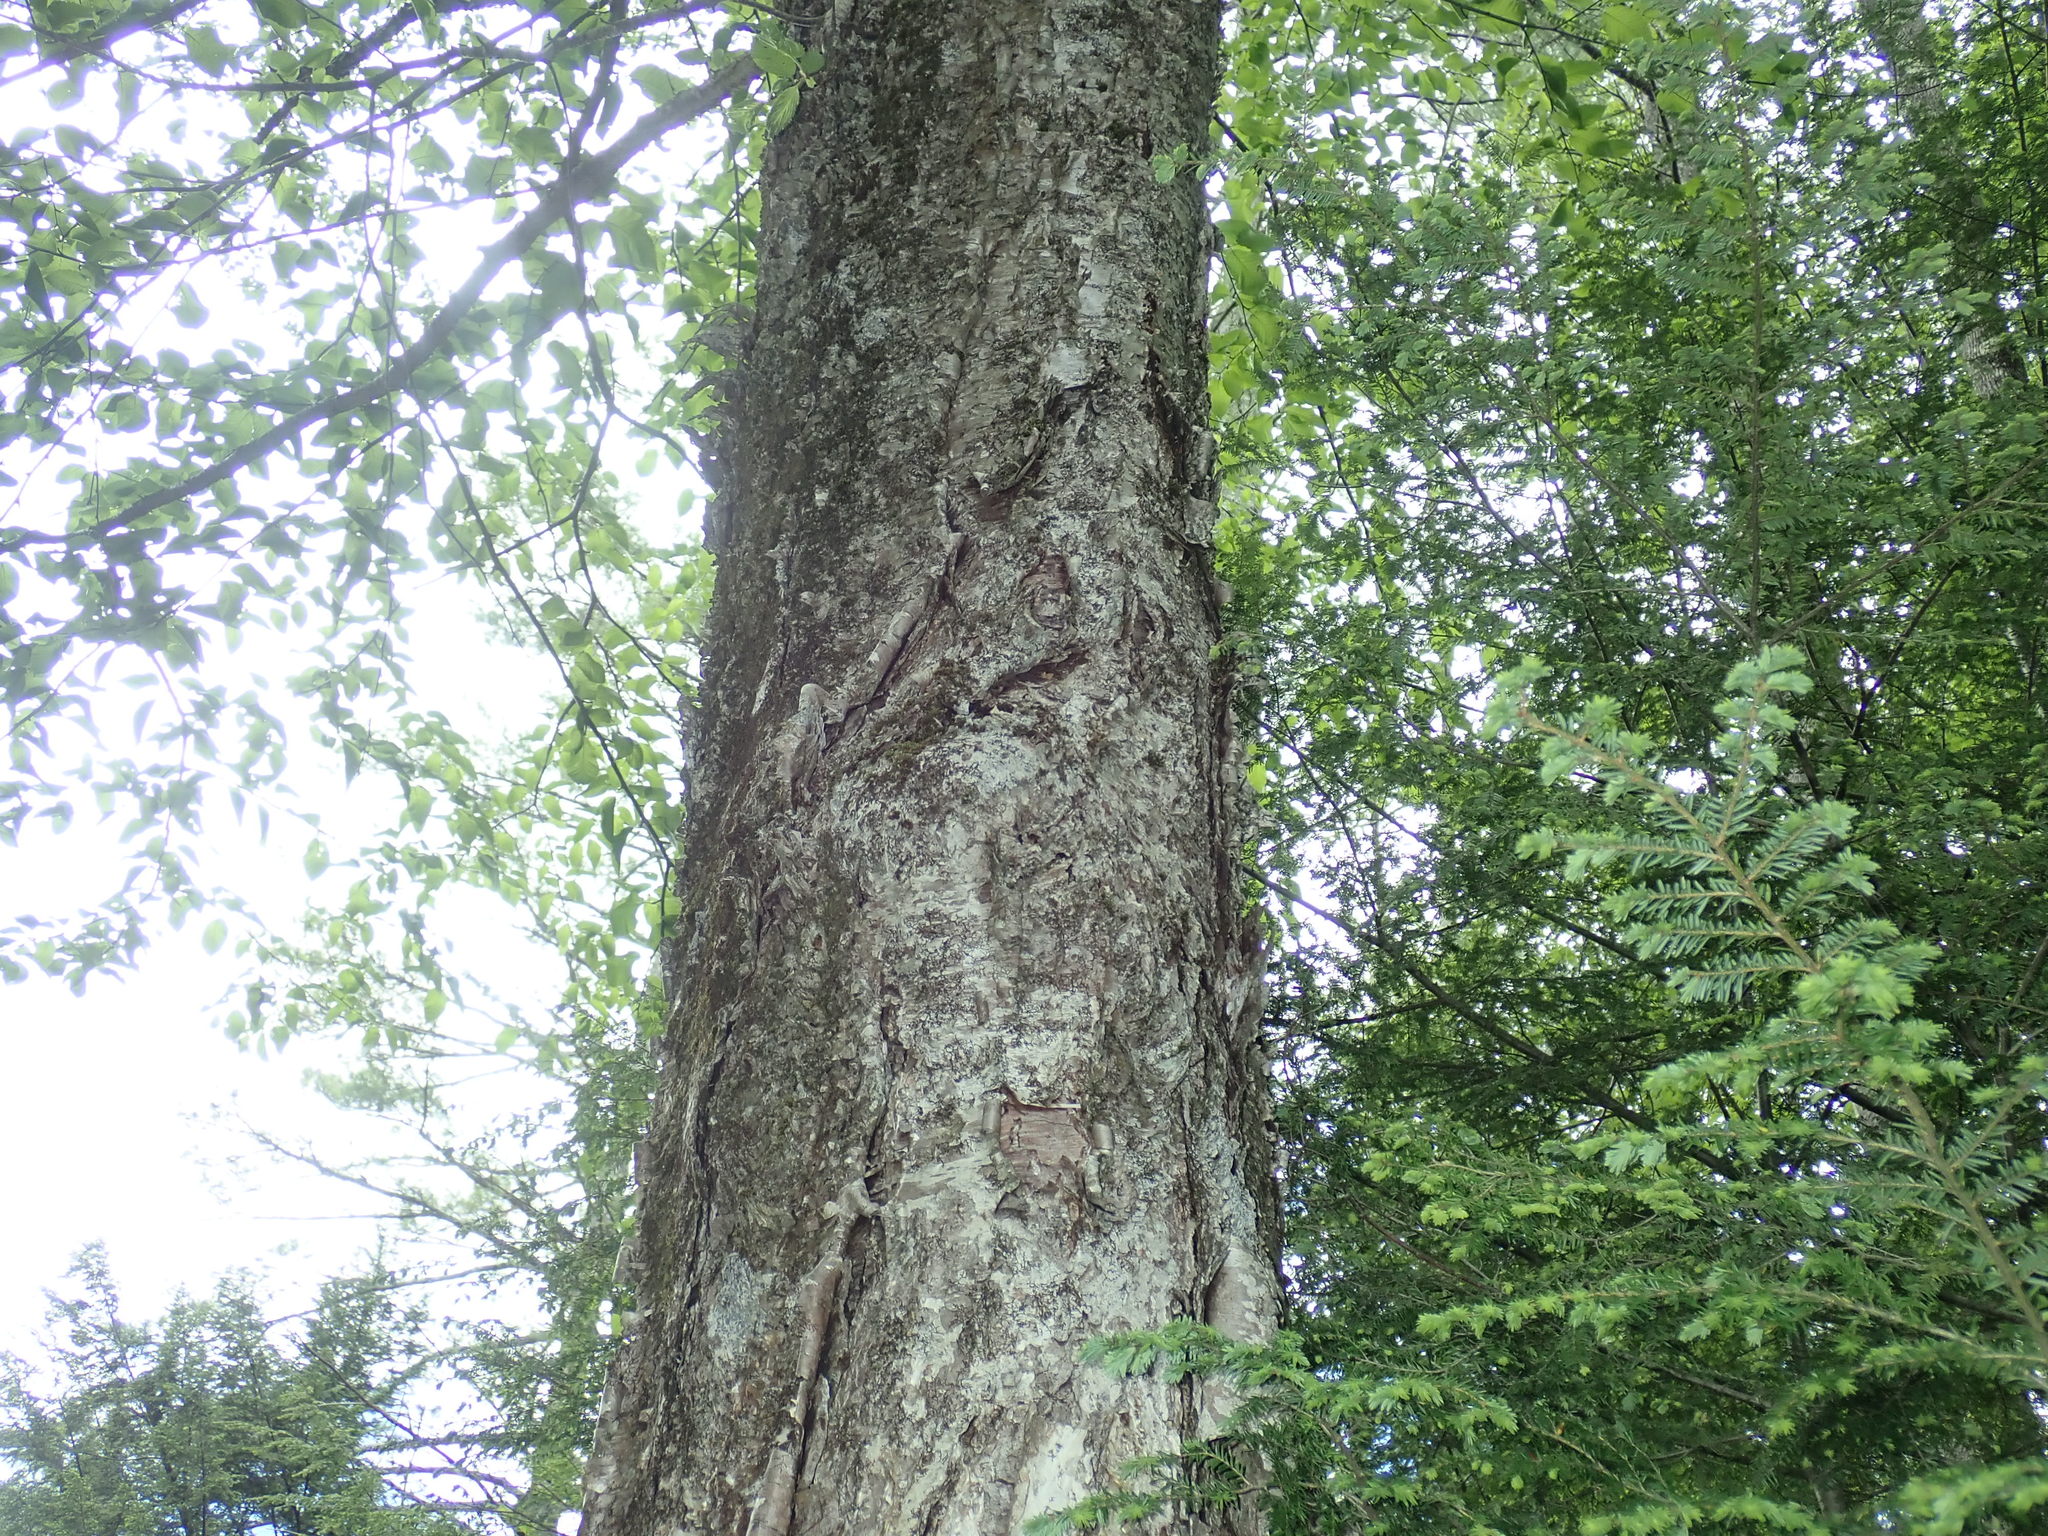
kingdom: Plantae
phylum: Tracheophyta
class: Magnoliopsida
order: Fagales
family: Betulaceae
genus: Betula
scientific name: Betula alleghaniensis
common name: Yellow birch
